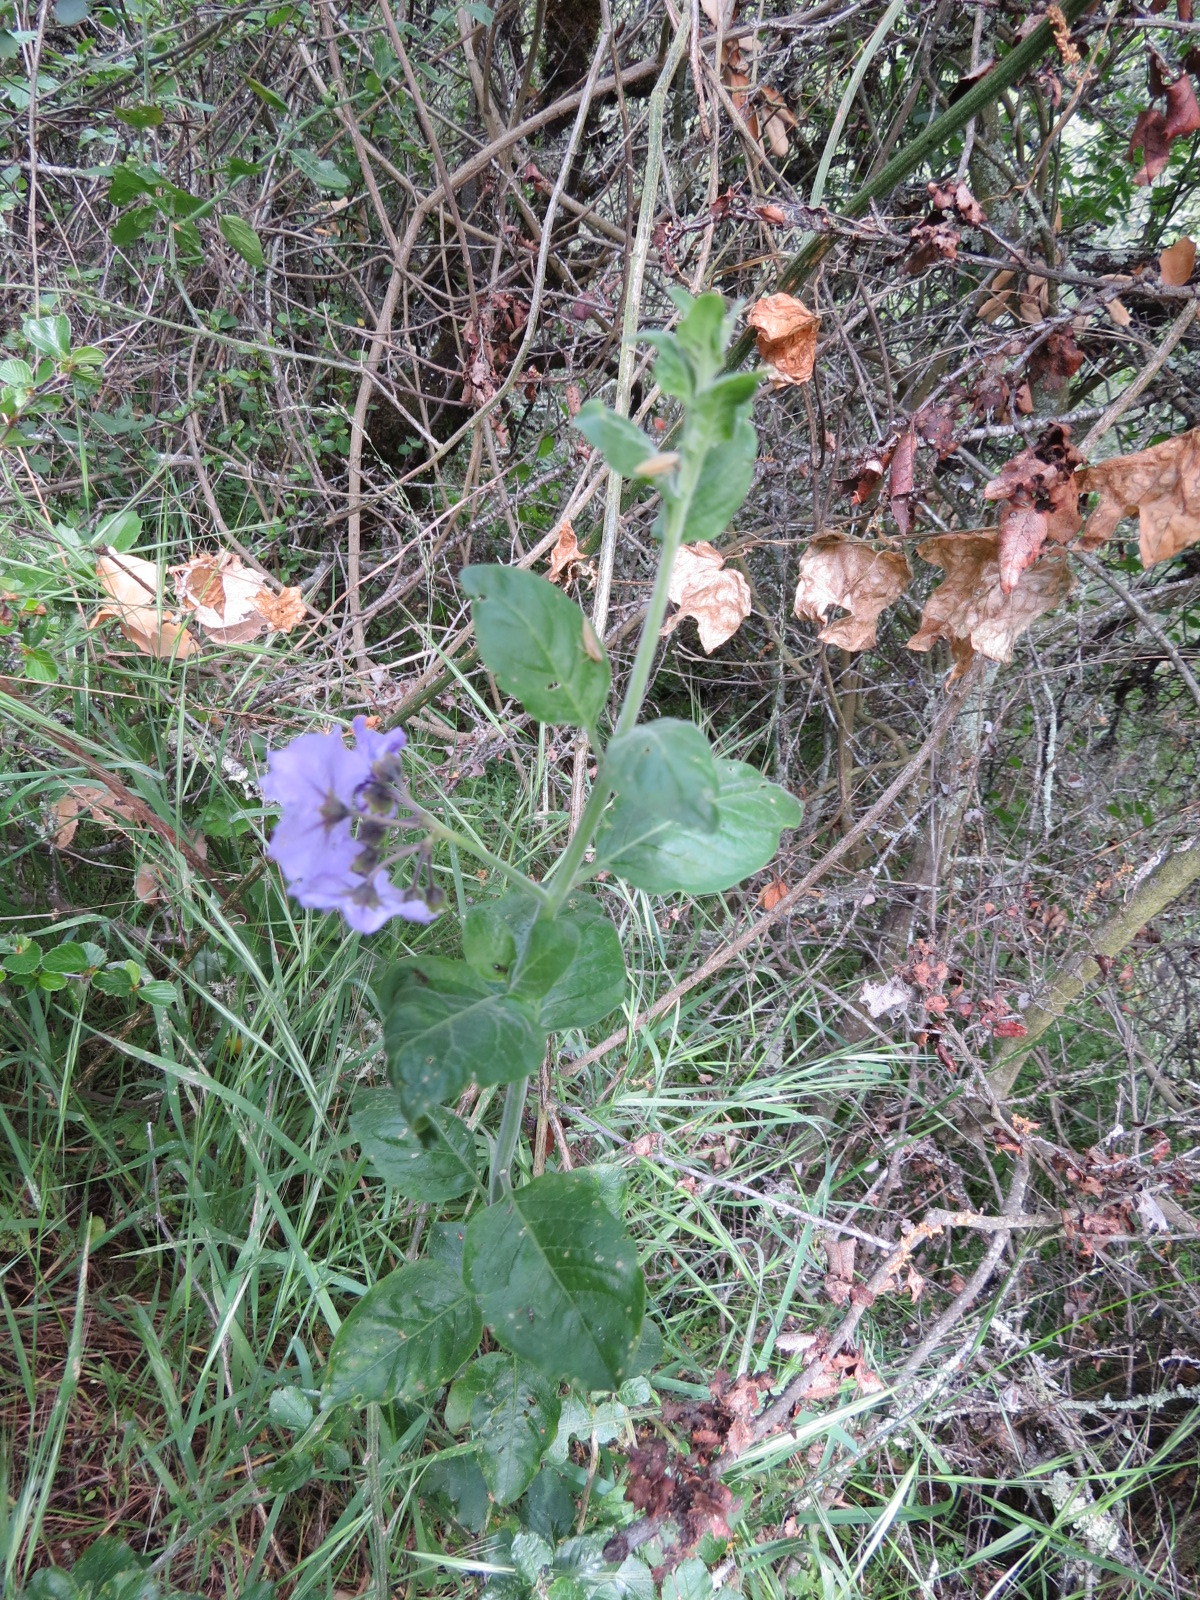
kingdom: Plantae
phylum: Tracheophyta
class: Magnoliopsida
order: Solanales
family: Solanaceae
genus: Solanum
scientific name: Solanum umbelliferum
